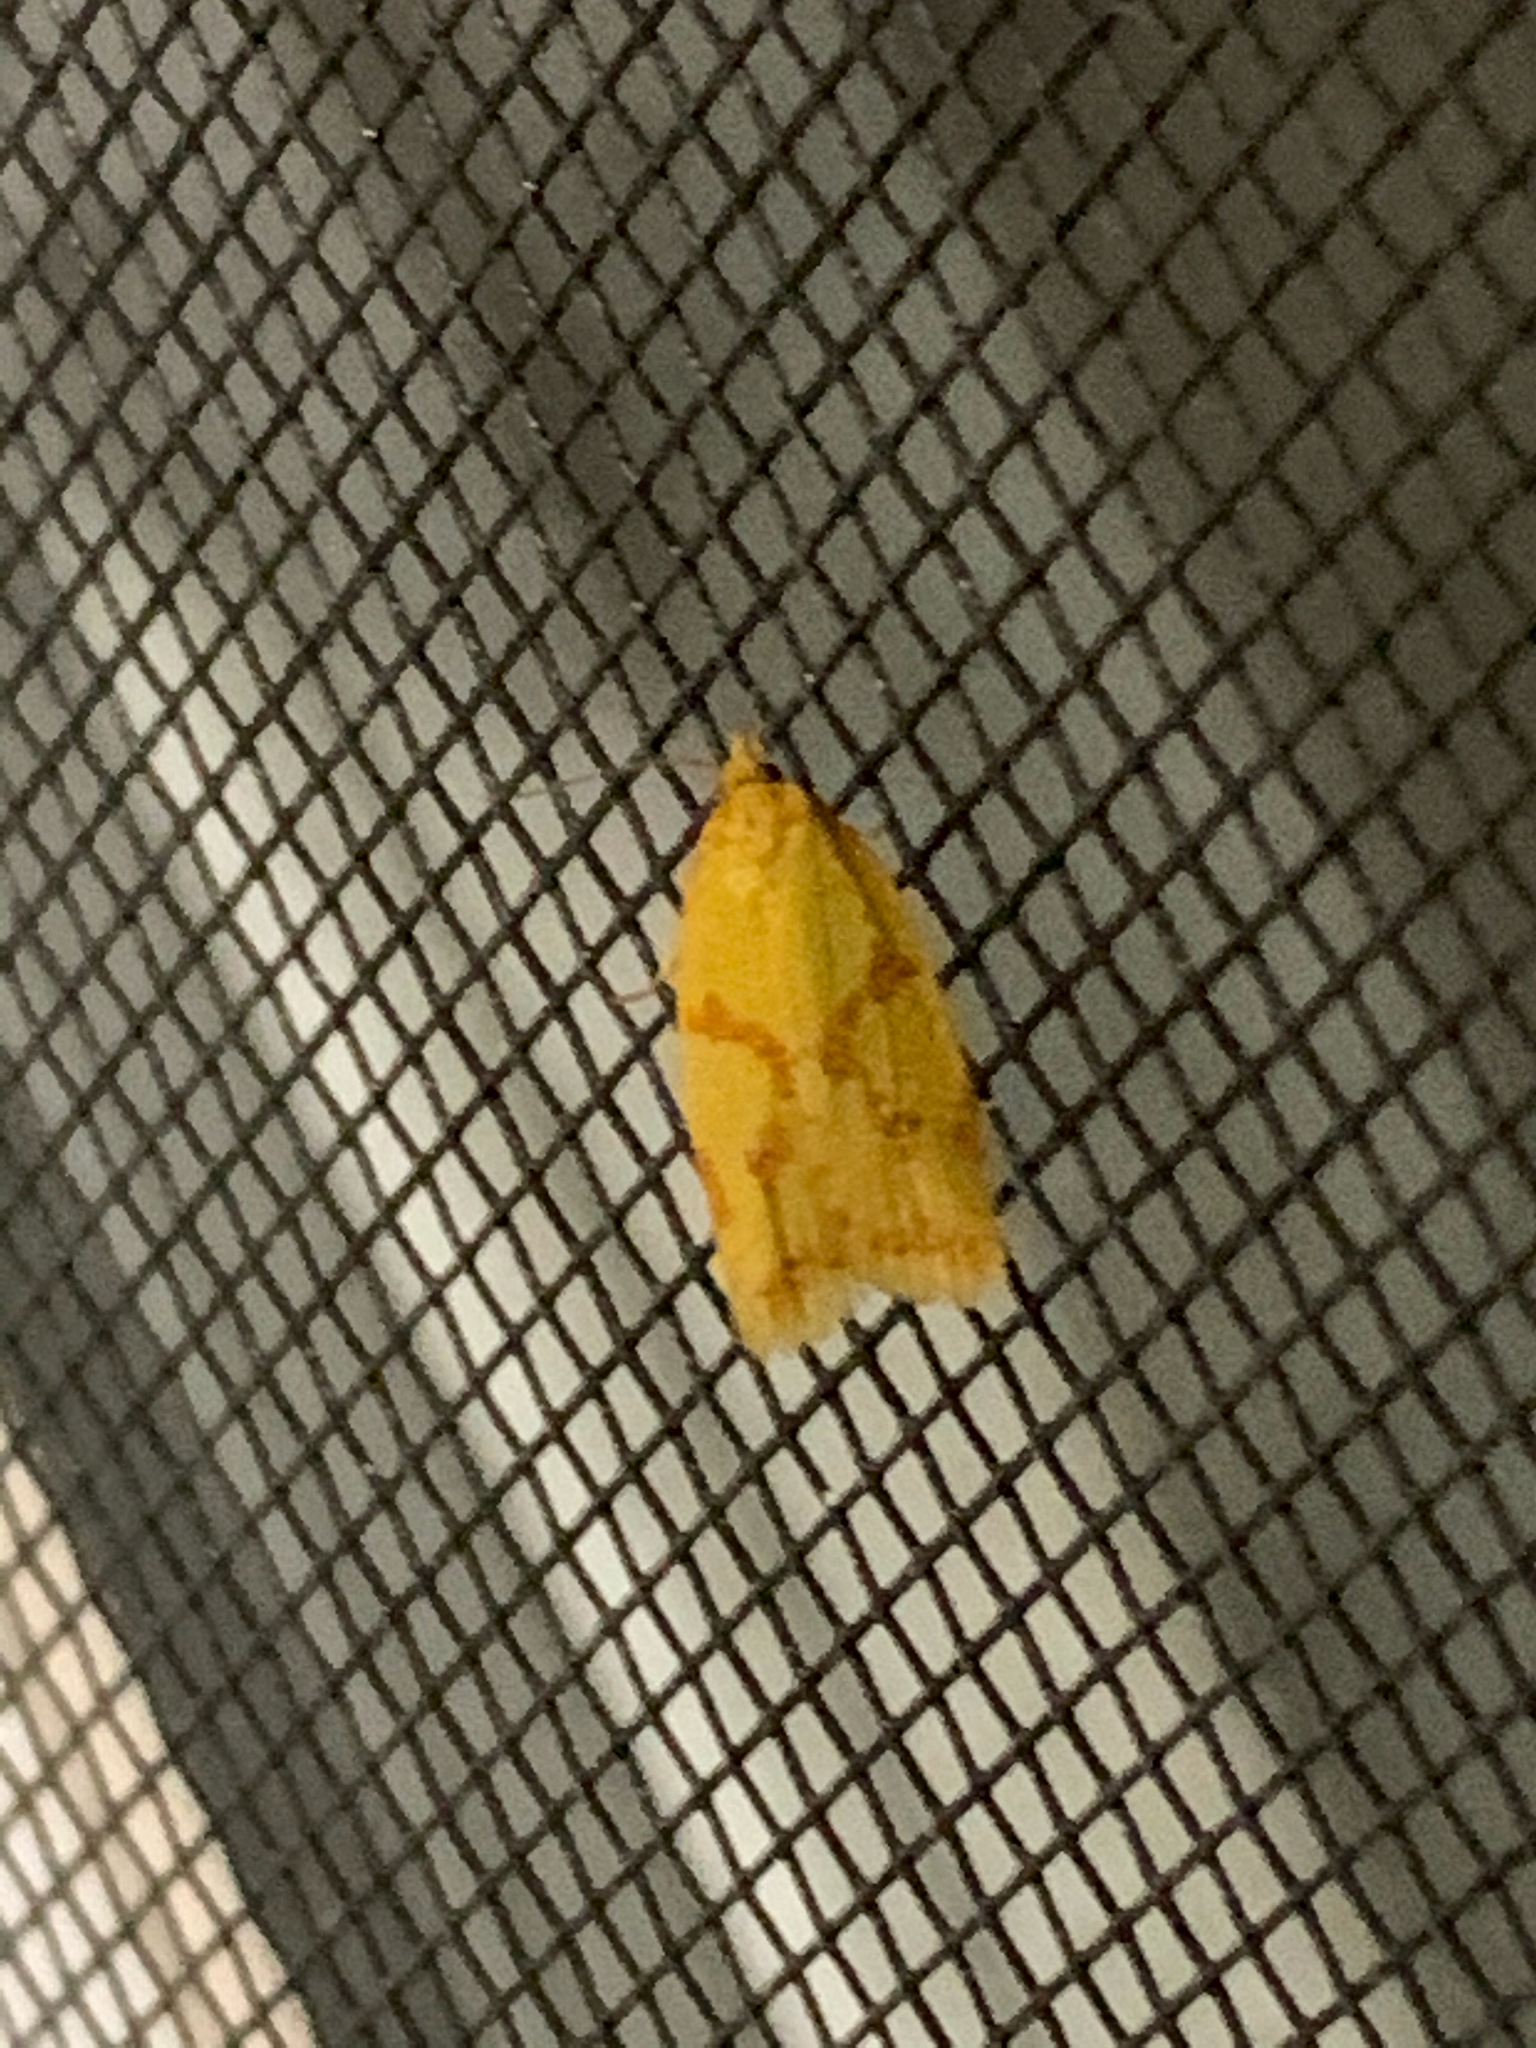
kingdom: Animalia
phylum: Arthropoda
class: Insecta
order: Lepidoptera
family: Tortricidae
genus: Sparganothis
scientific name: Sparganothis sulfureana
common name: Sparganothis fruitworm moth
